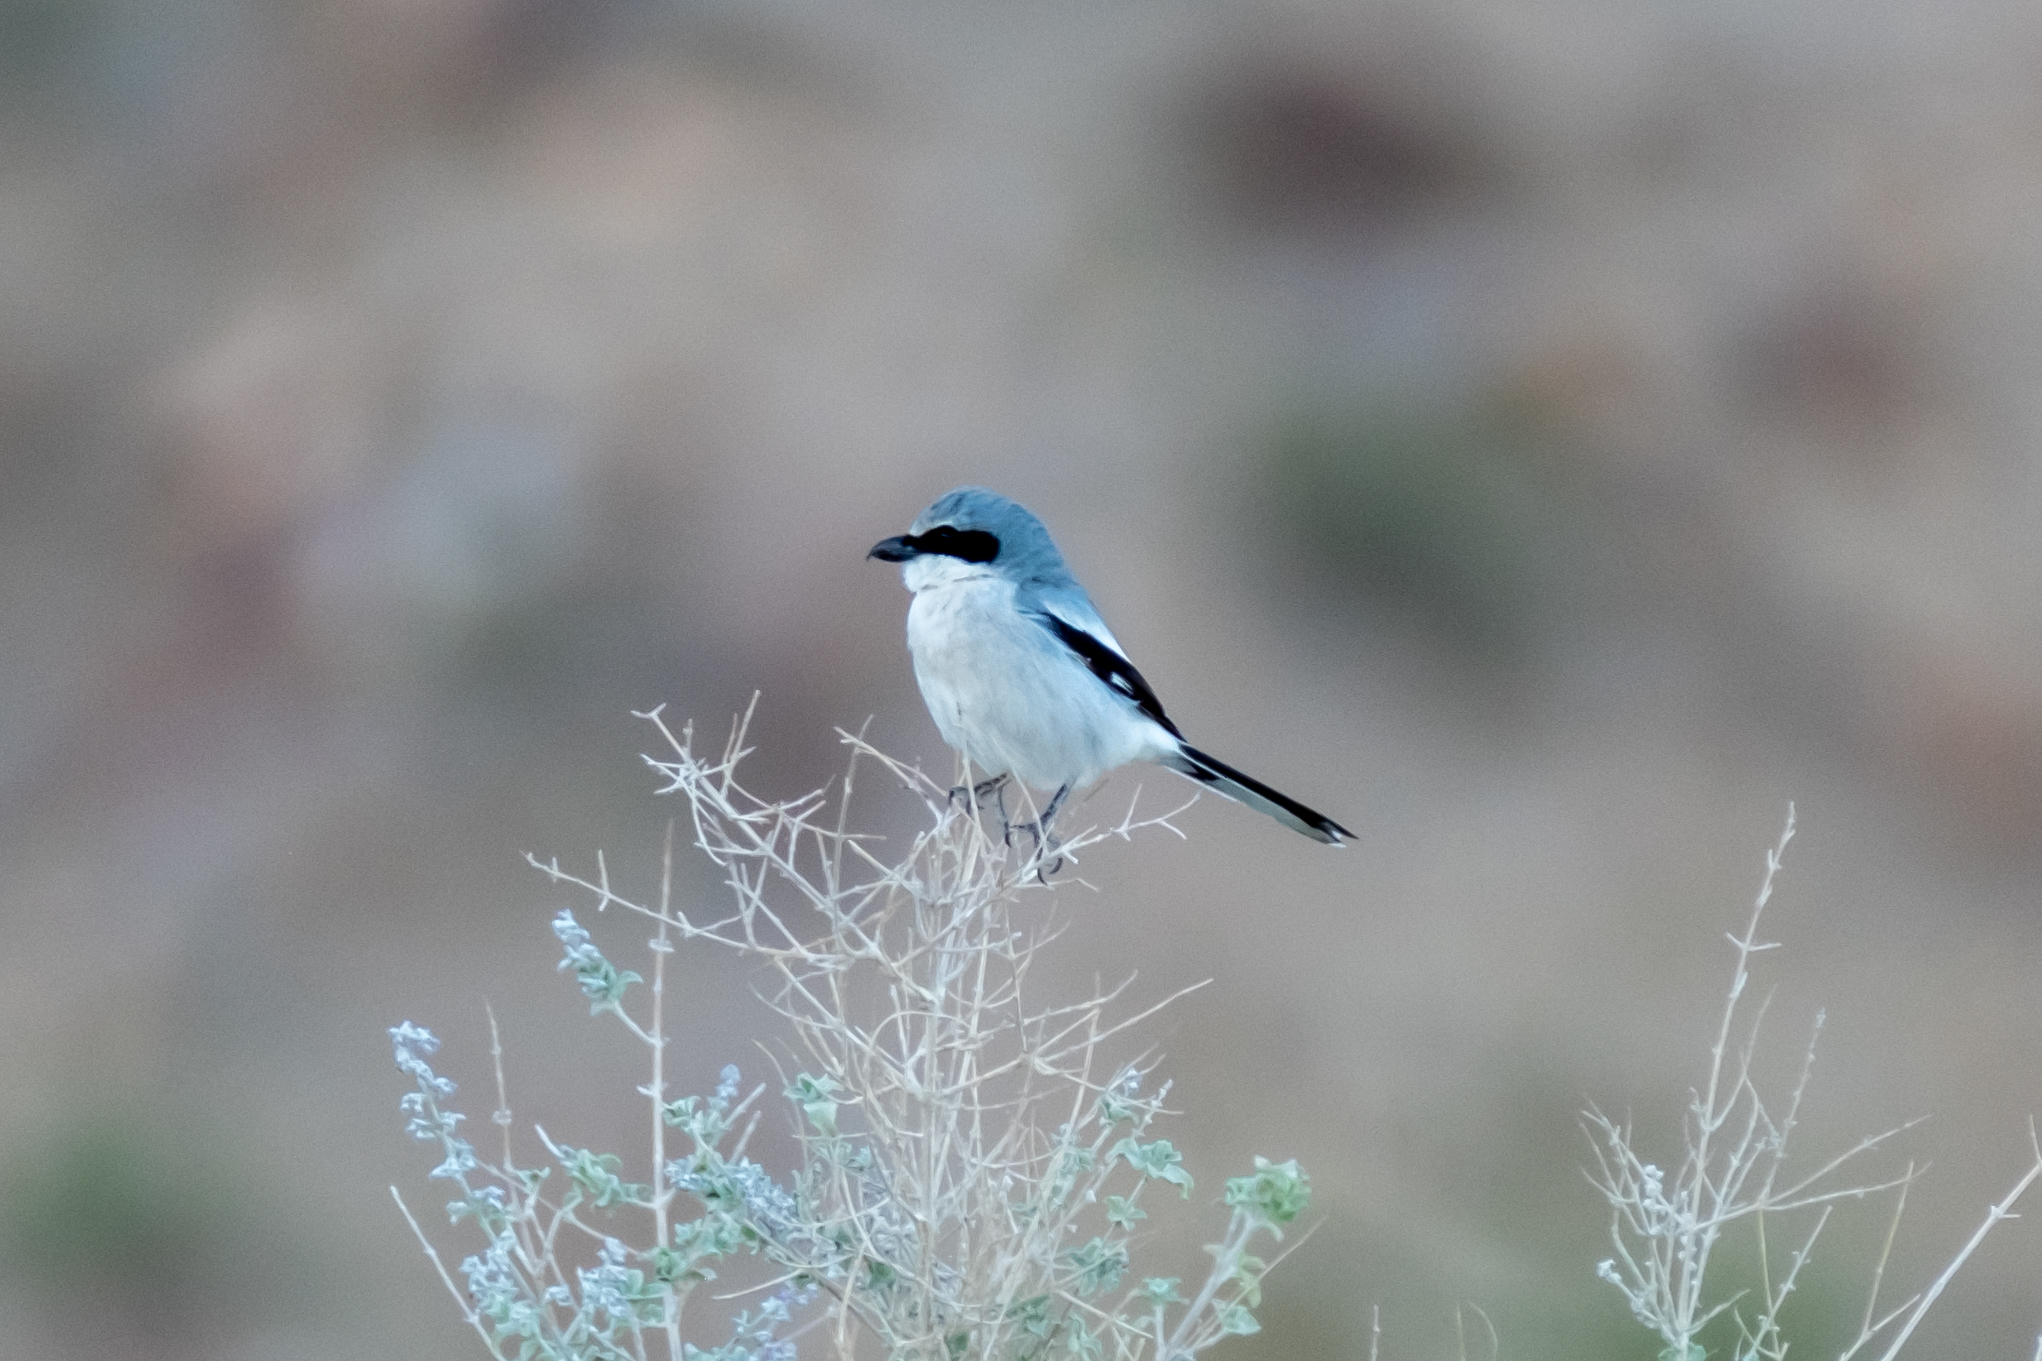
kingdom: Animalia
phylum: Chordata
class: Aves
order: Passeriformes
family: Laniidae
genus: Lanius
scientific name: Lanius ludovicianus
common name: Loggerhead shrike
